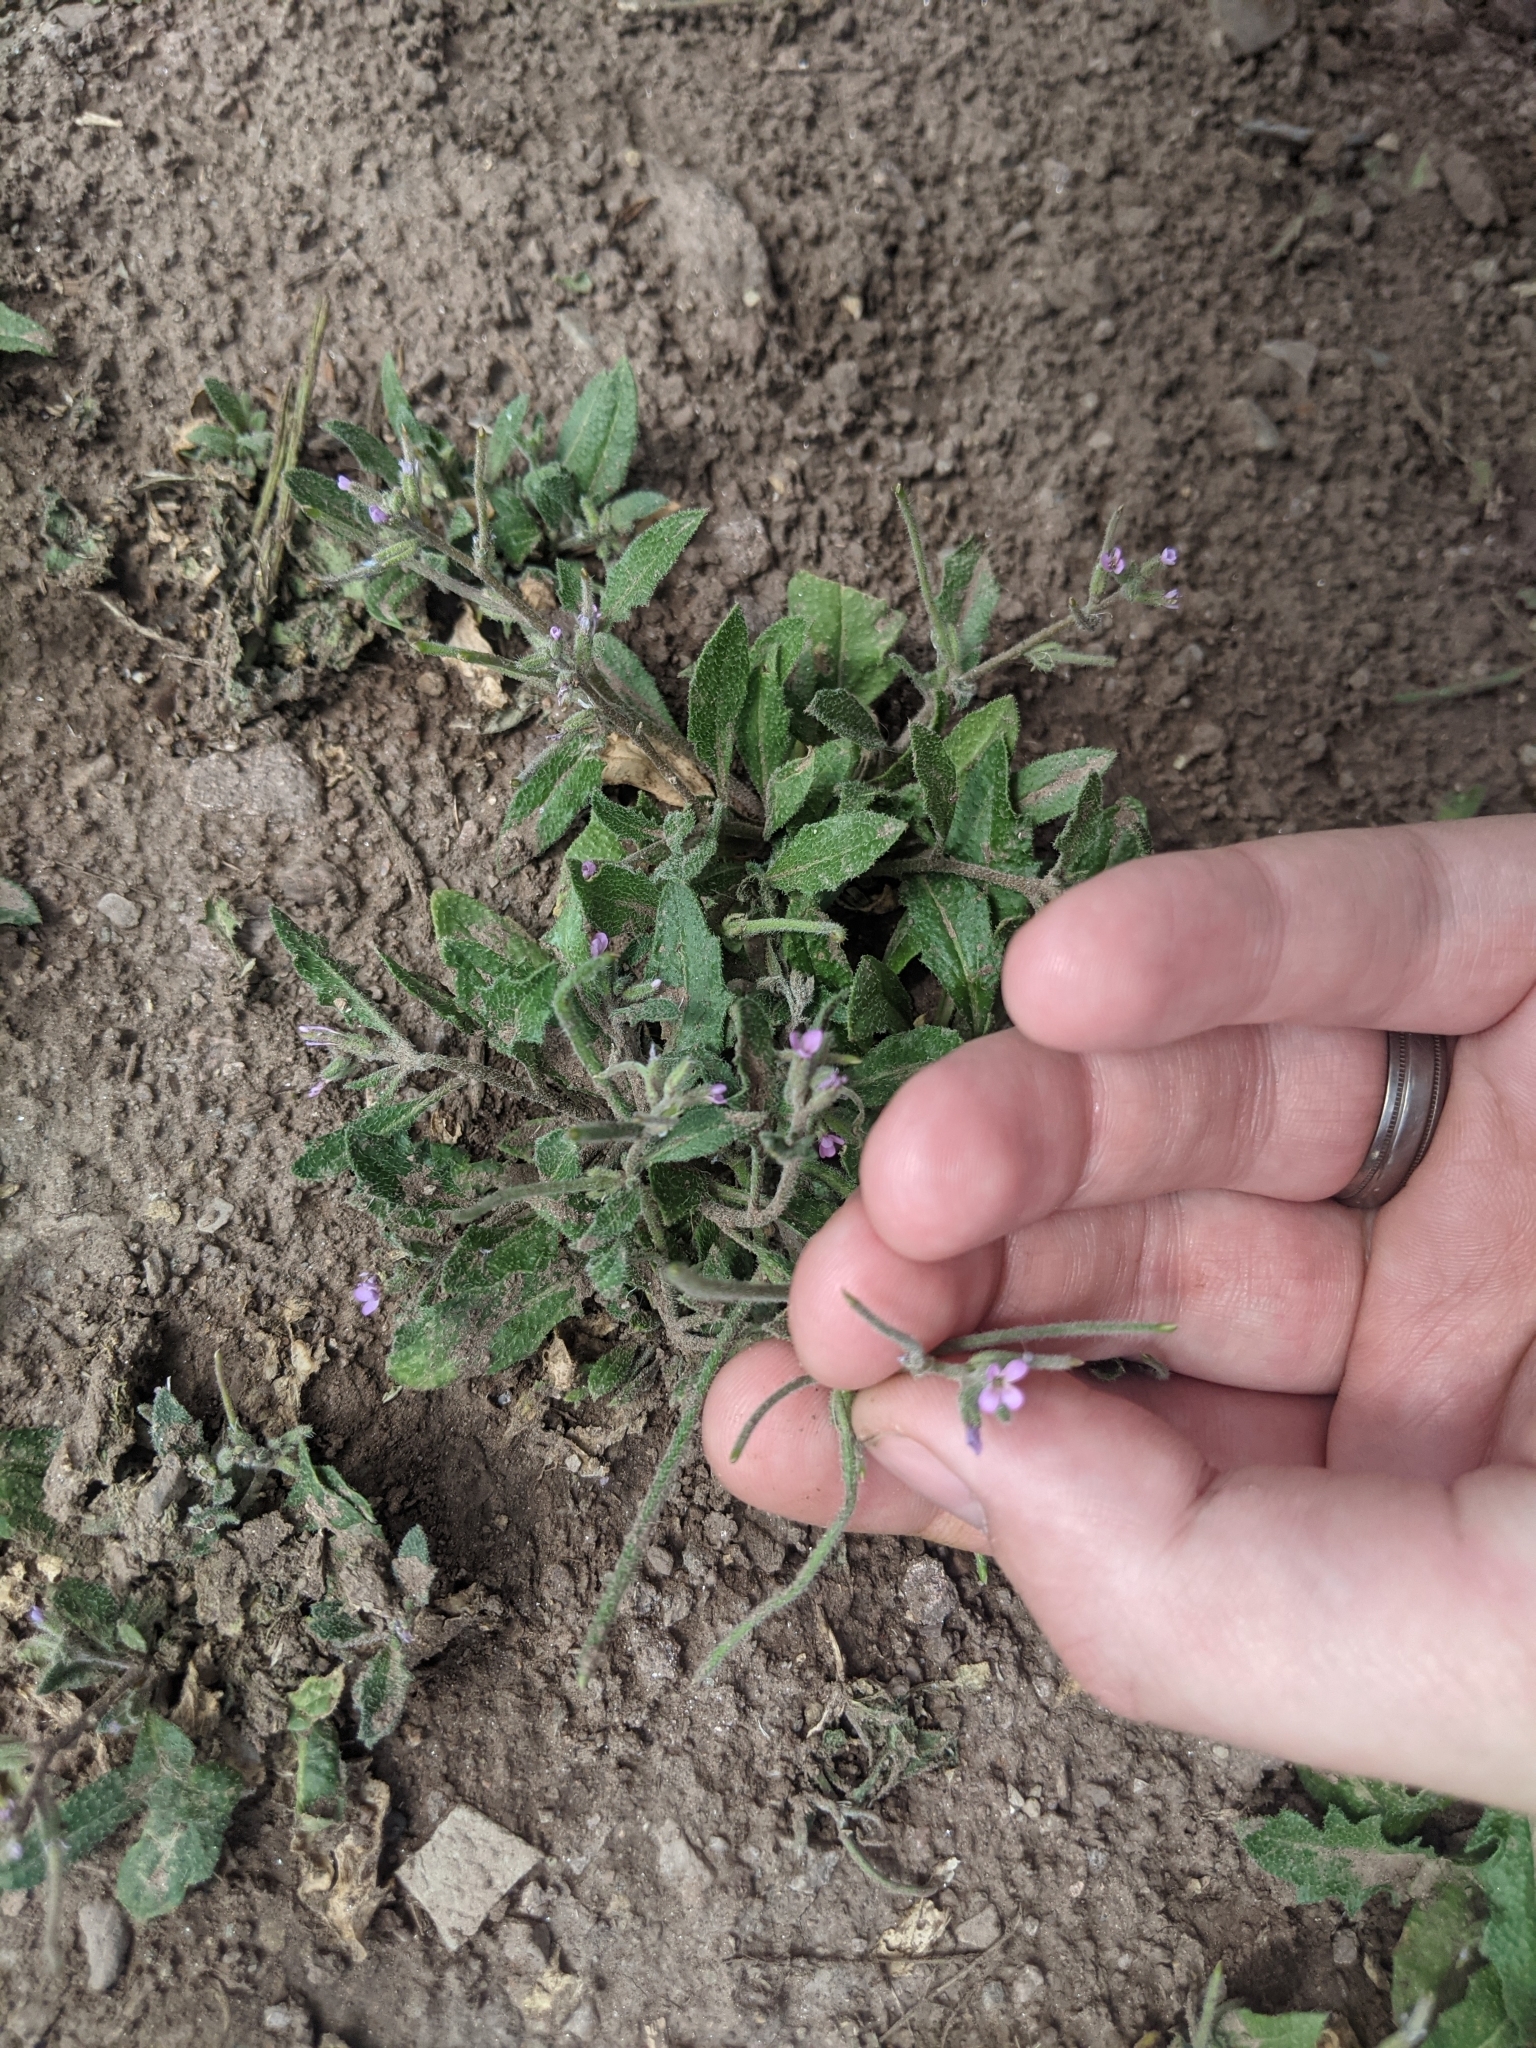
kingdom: Plantae
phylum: Tracheophyta
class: Magnoliopsida
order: Brassicales
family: Brassicaceae
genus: Strigosella
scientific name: Strigosella africana
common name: African mustard
